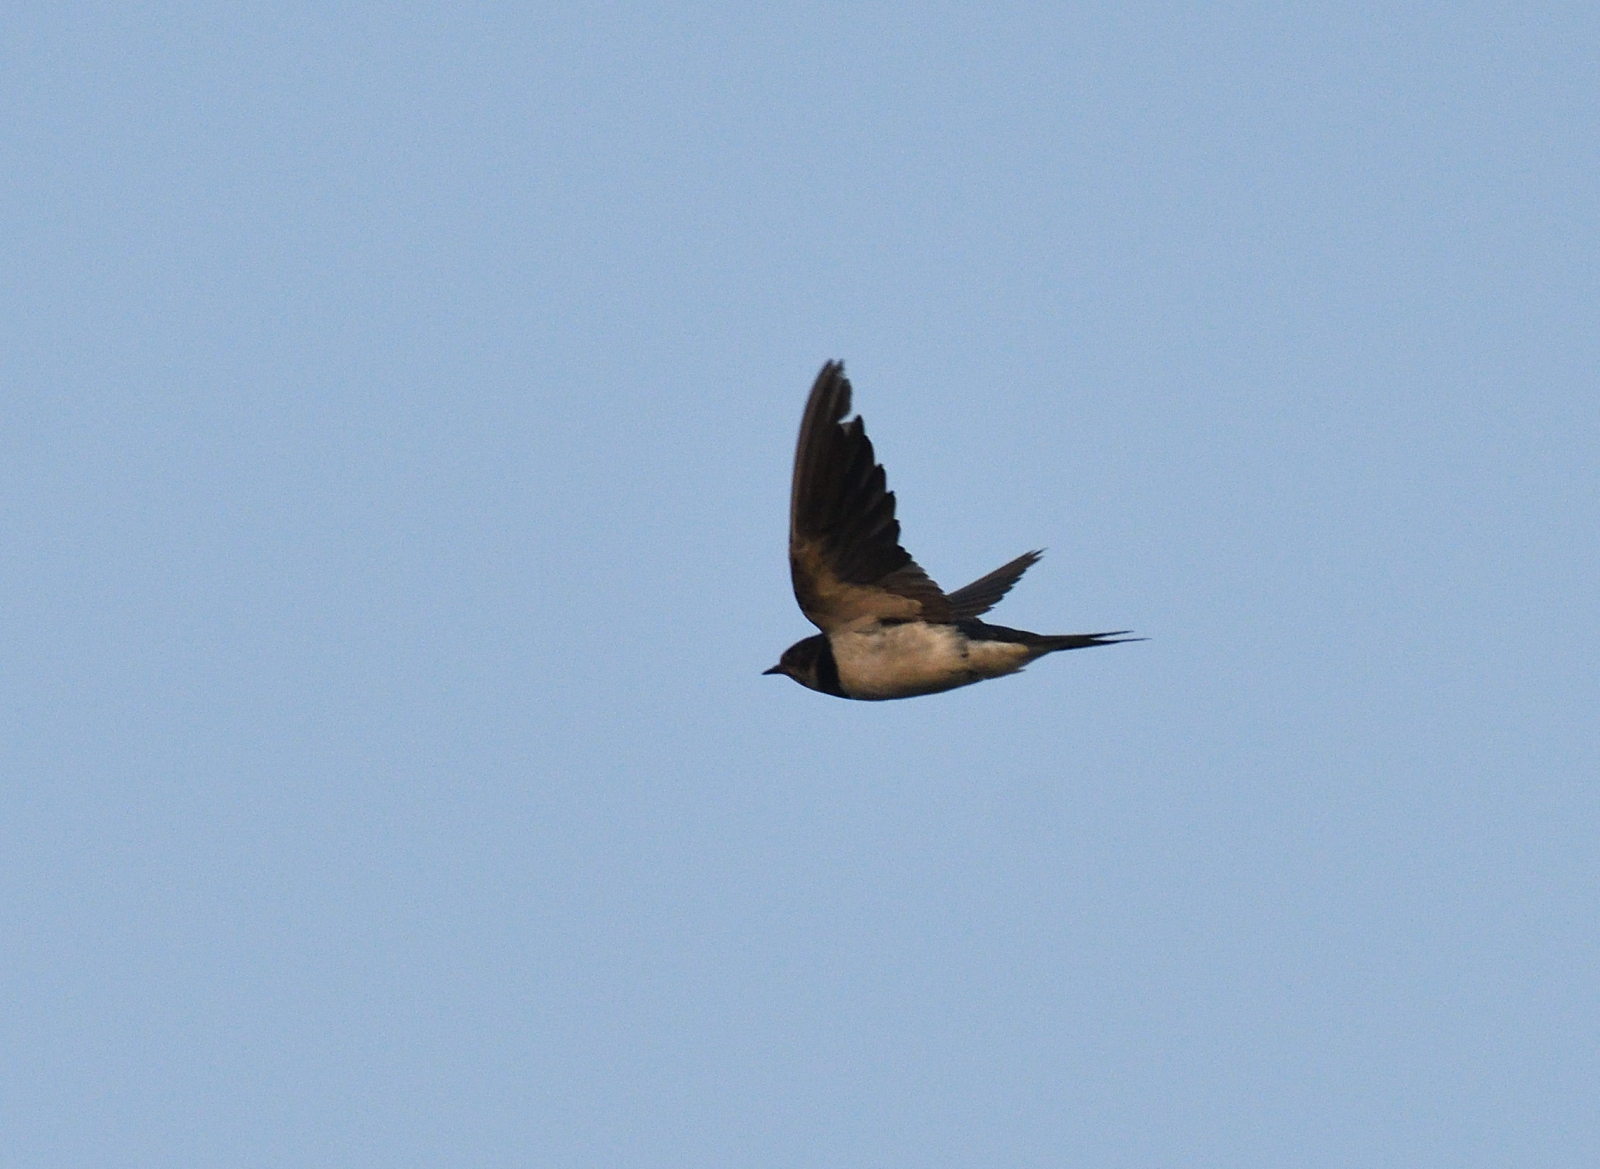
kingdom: Animalia
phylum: Chordata
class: Aves
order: Passeriformes
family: Hirundinidae
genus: Hirundo
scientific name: Hirundo rustica
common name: Barn swallow
